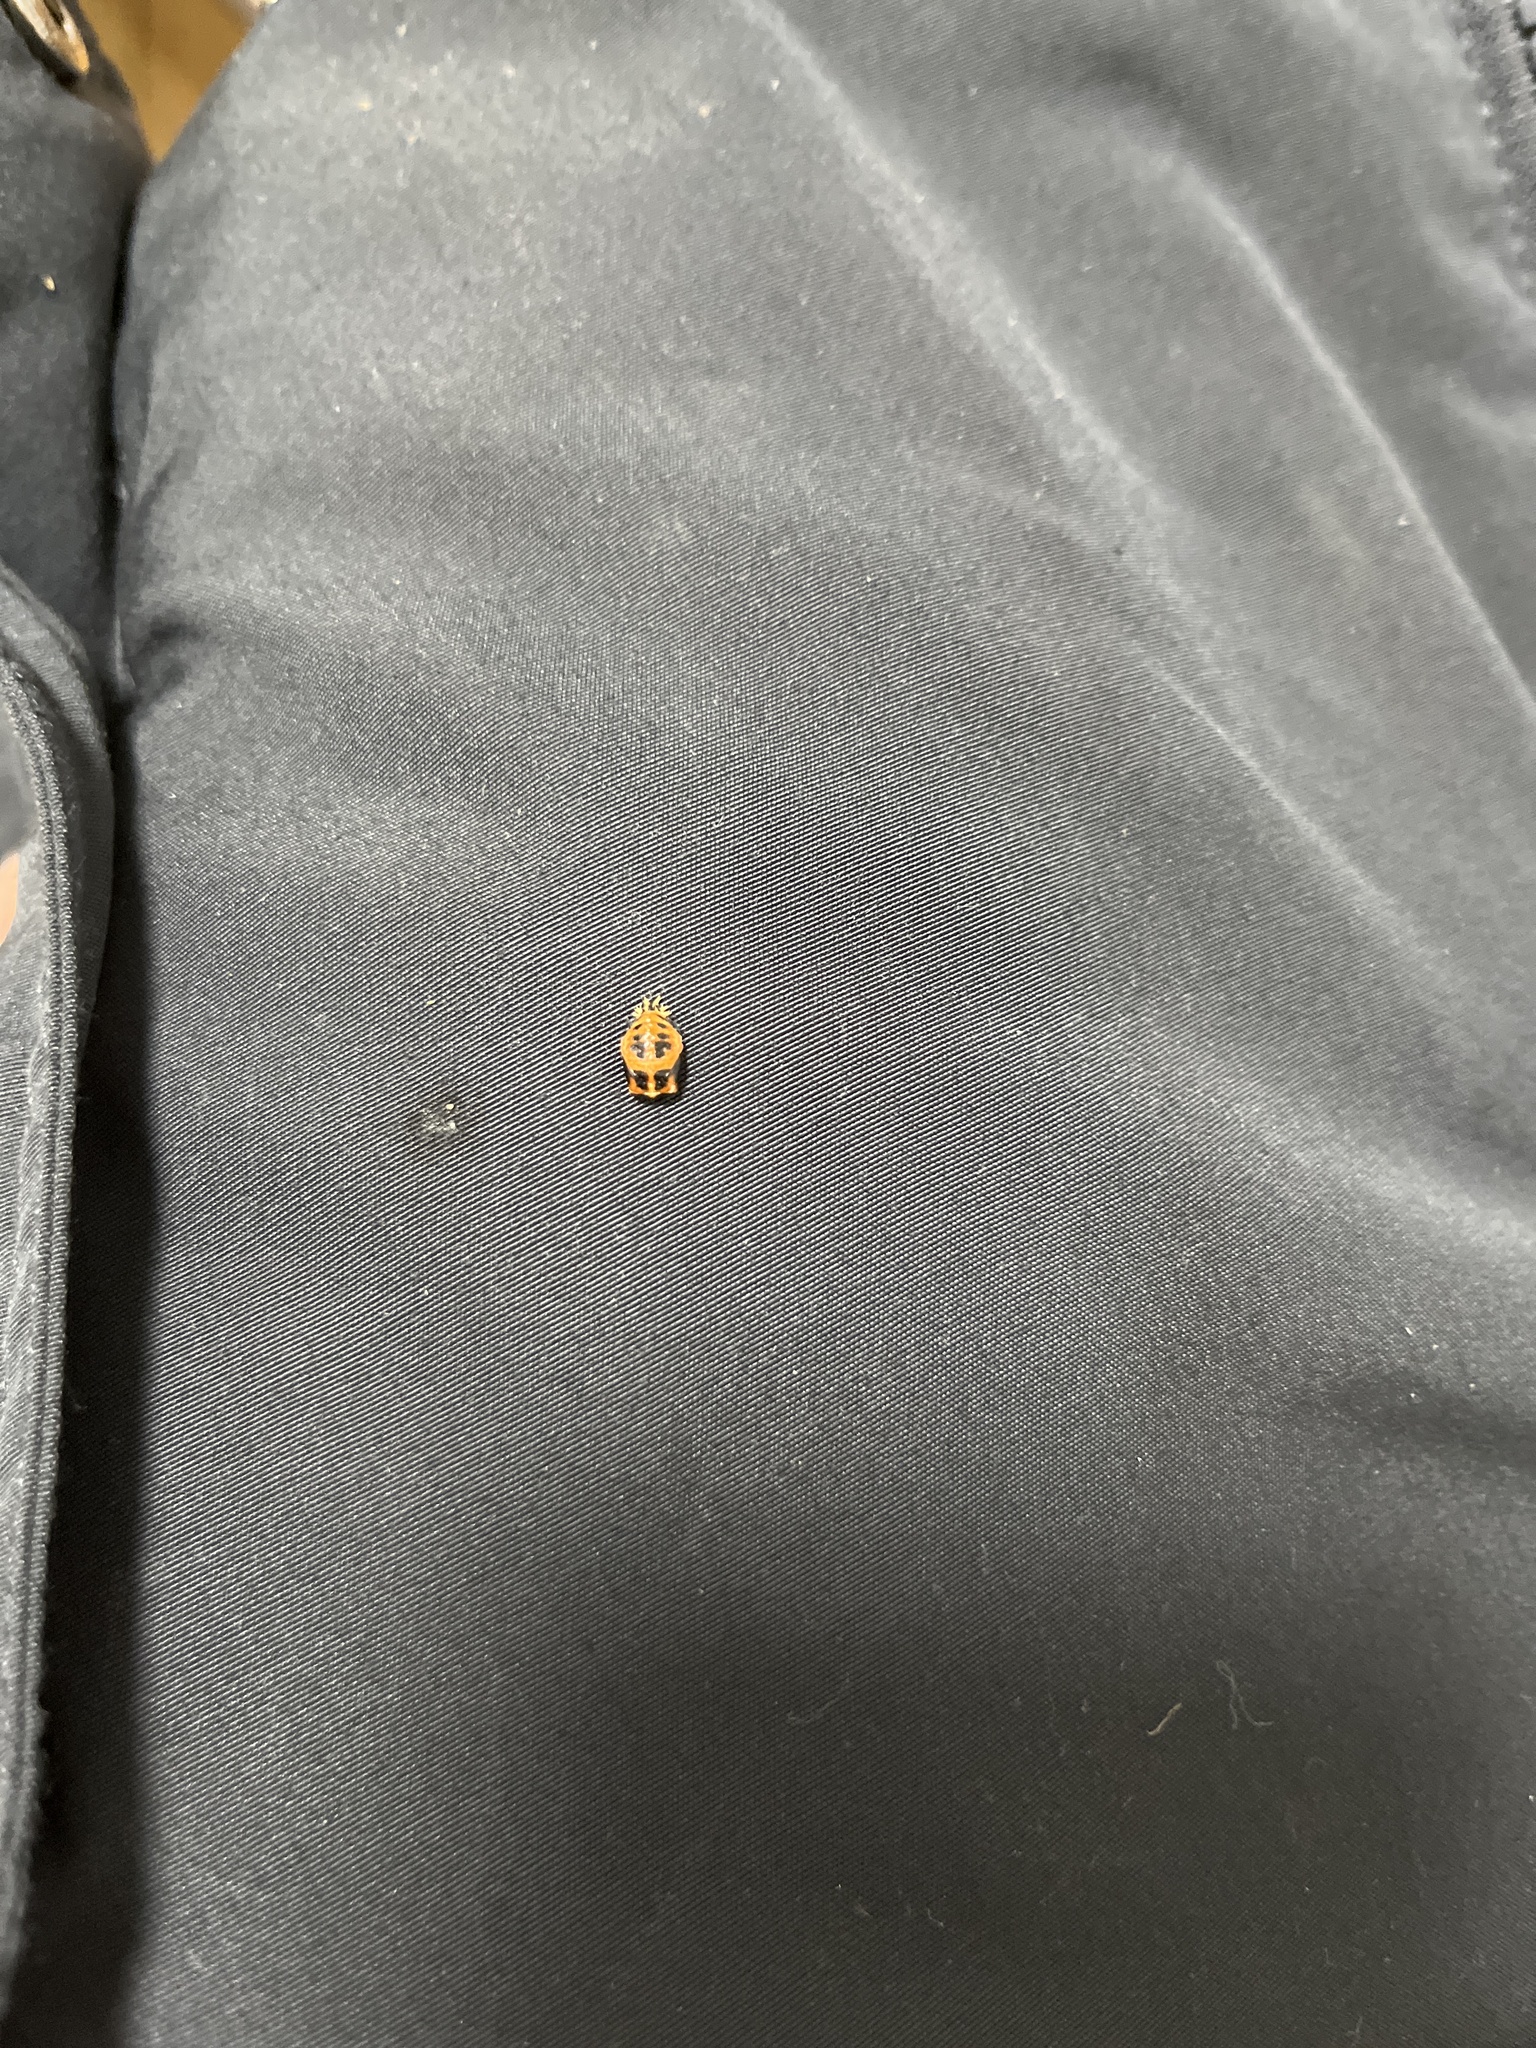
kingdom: Animalia
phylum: Arthropoda
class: Insecta
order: Coleoptera
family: Coccinellidae
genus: Harmonia
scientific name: Harmonia axyridis
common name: Harlequin ladybird
